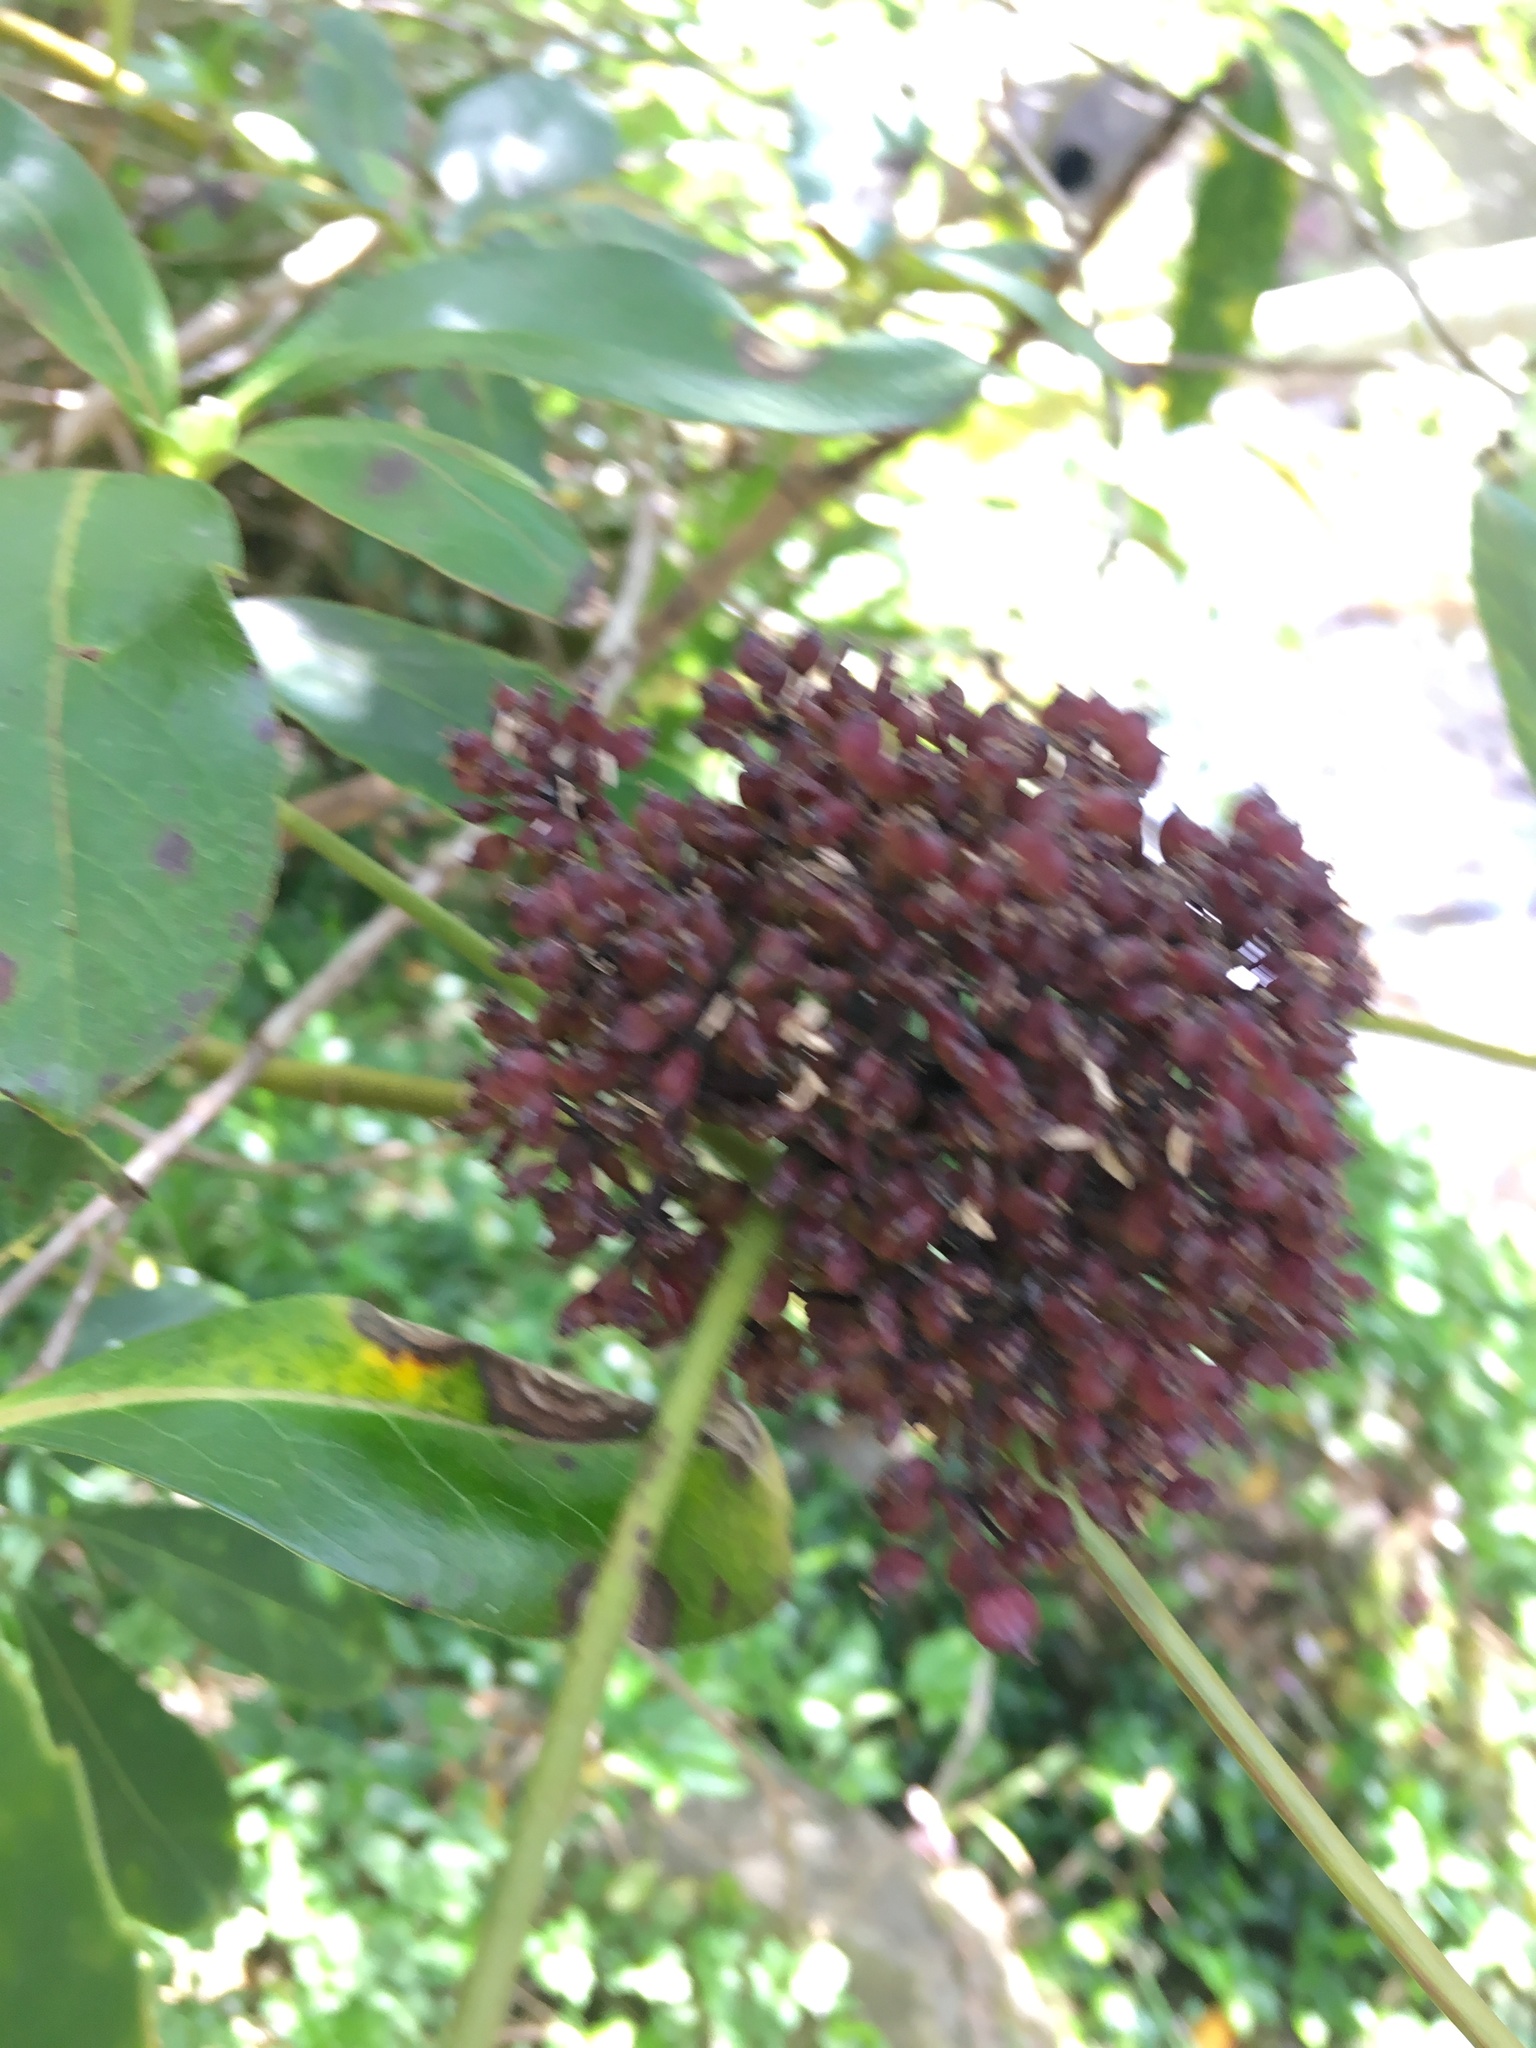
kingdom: Plantae
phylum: Tracheophyta
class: Magnoliopsida
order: Apiales
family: Araliaceae
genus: Neopanax
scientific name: Neopanax arboreus
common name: Five-fingers
